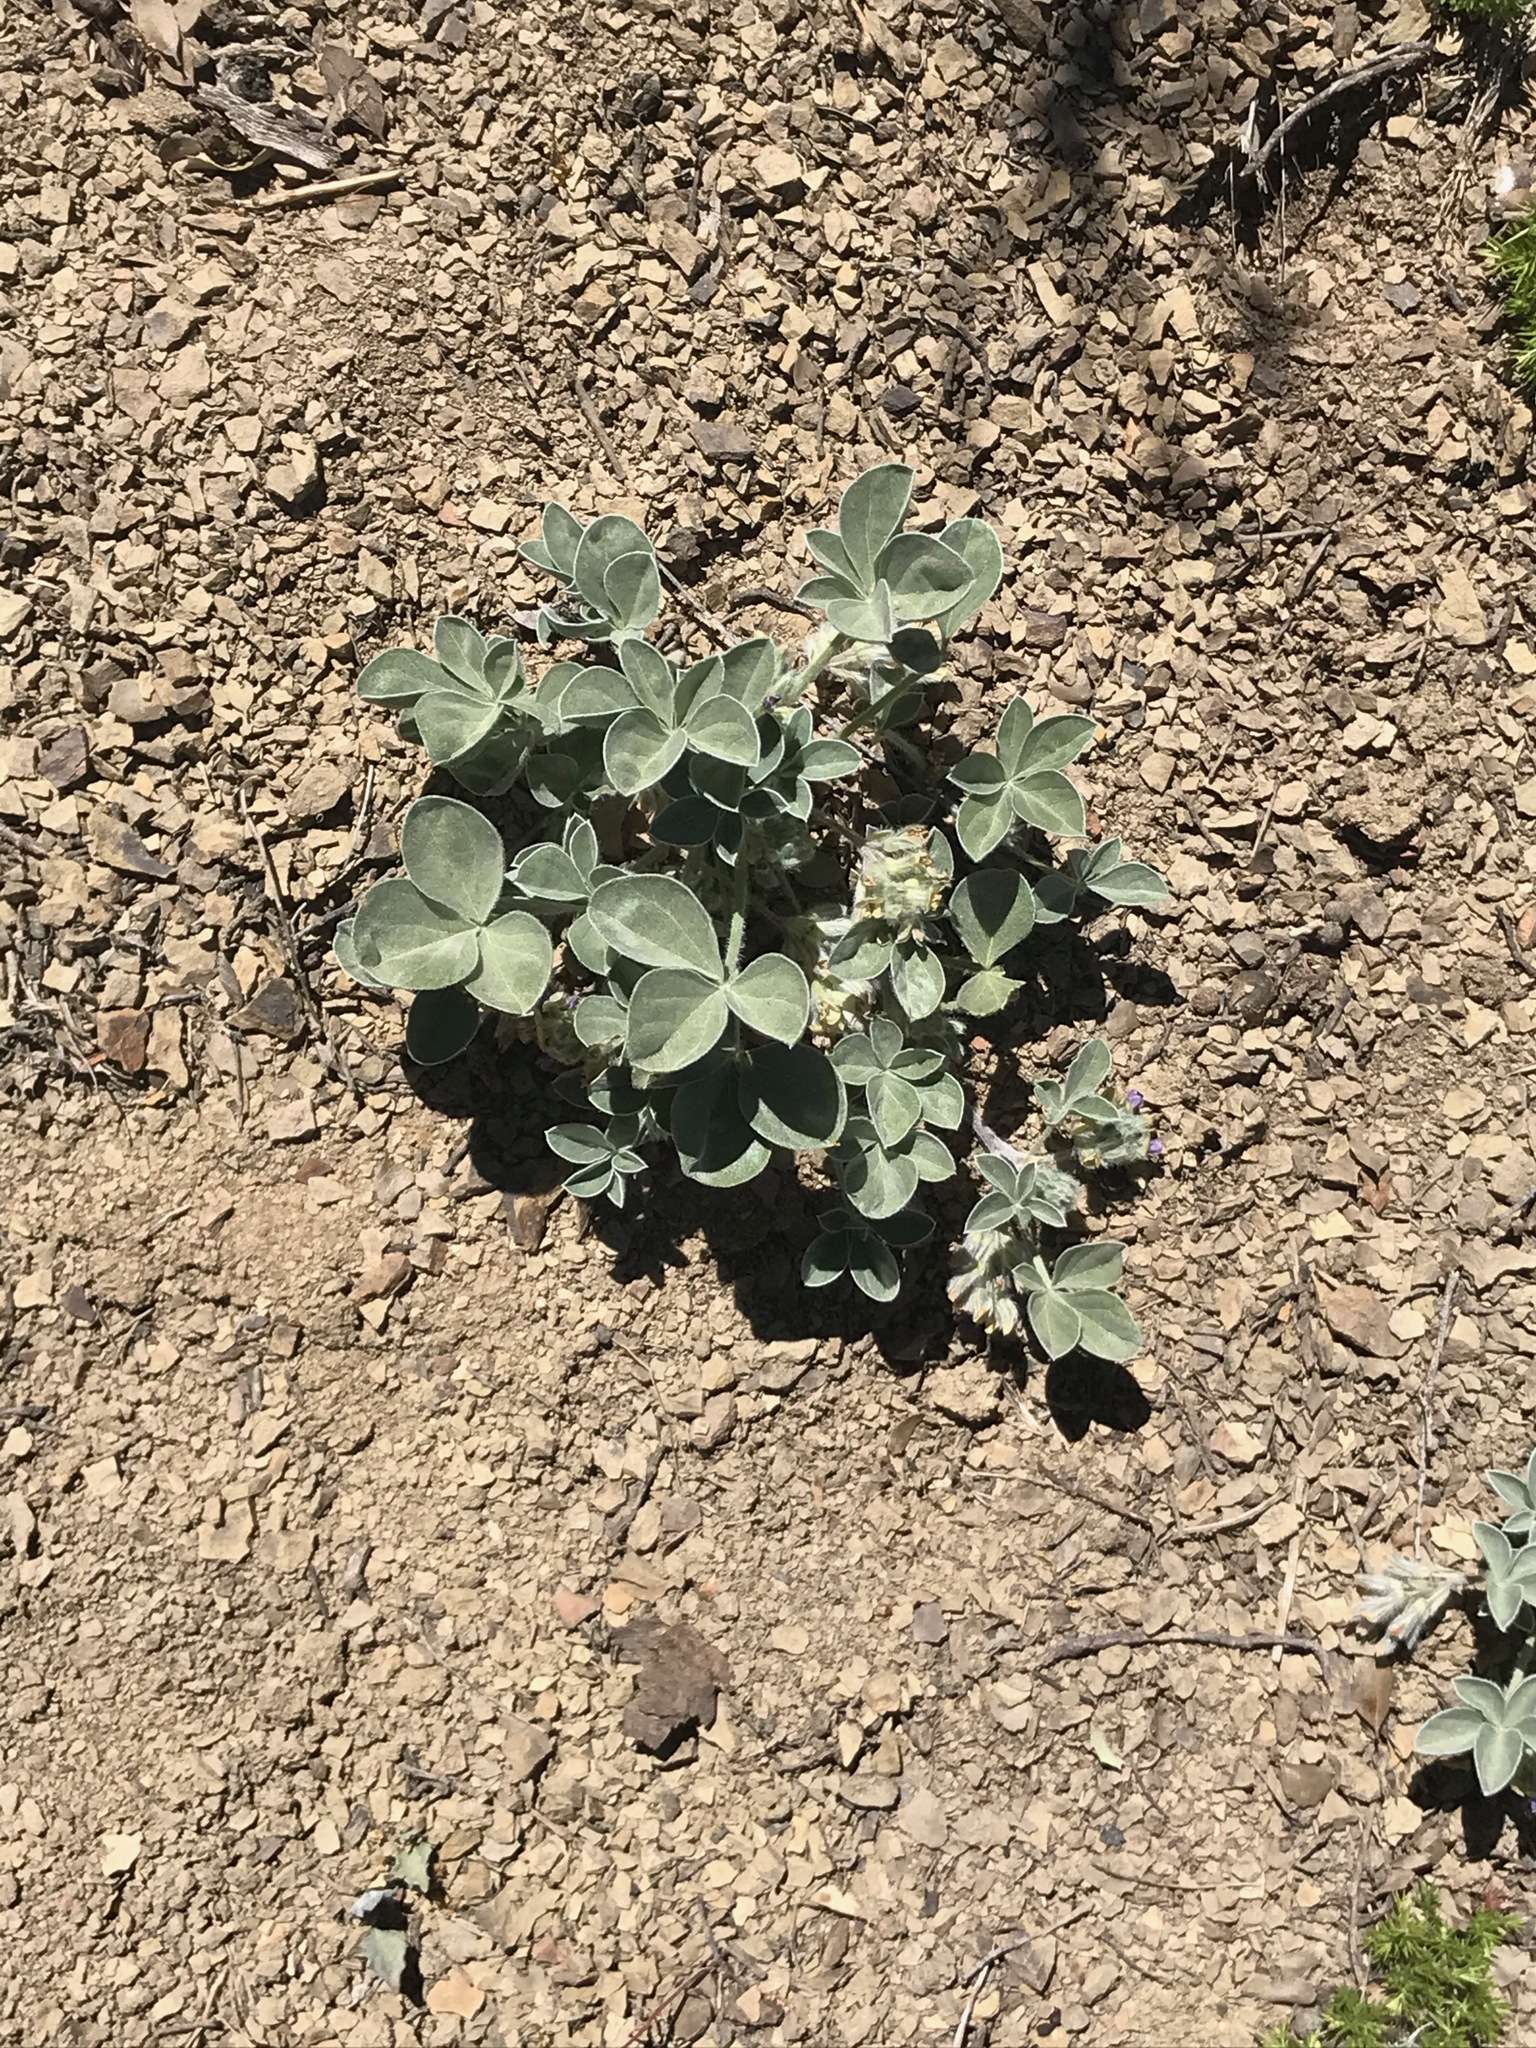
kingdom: Plantae
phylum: Tracheophyta
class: Magnoliopsida
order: Fabales
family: Fabaceae
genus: Pediomelum
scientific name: Pediomelum californicum
